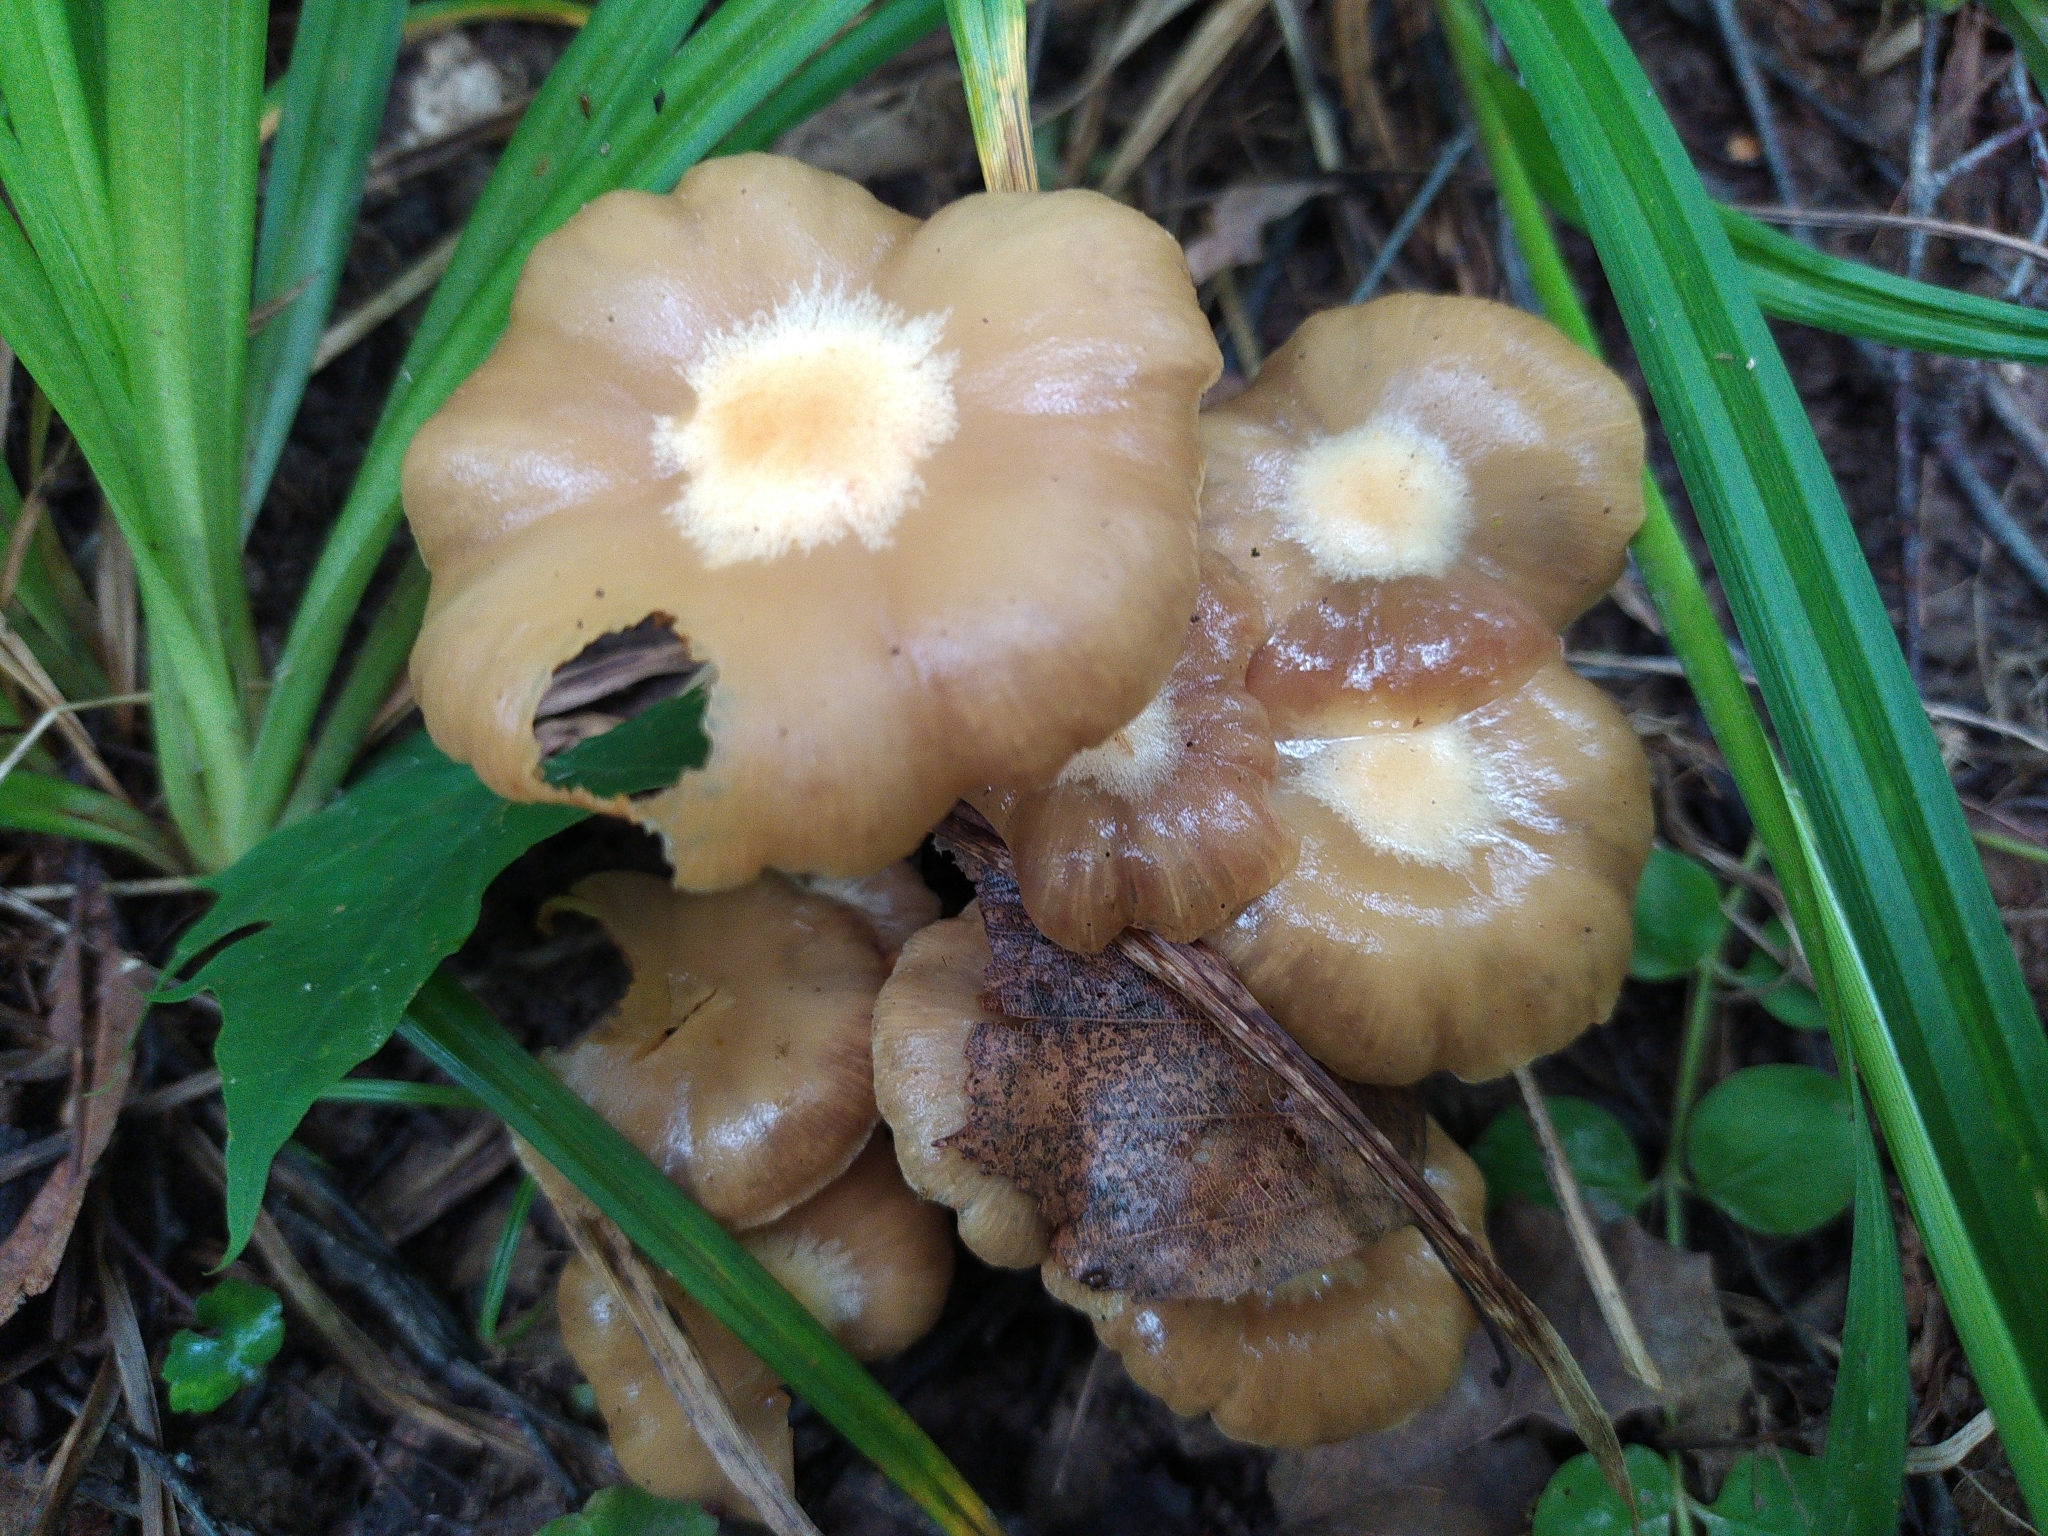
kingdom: Fungi
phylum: Basidiomycota
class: Agaricomycetes
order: Agaricales
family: Strophariaceae
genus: Kuehneromyces
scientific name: Kuehneromyces mutabilis
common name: Sheathed woodtuft
